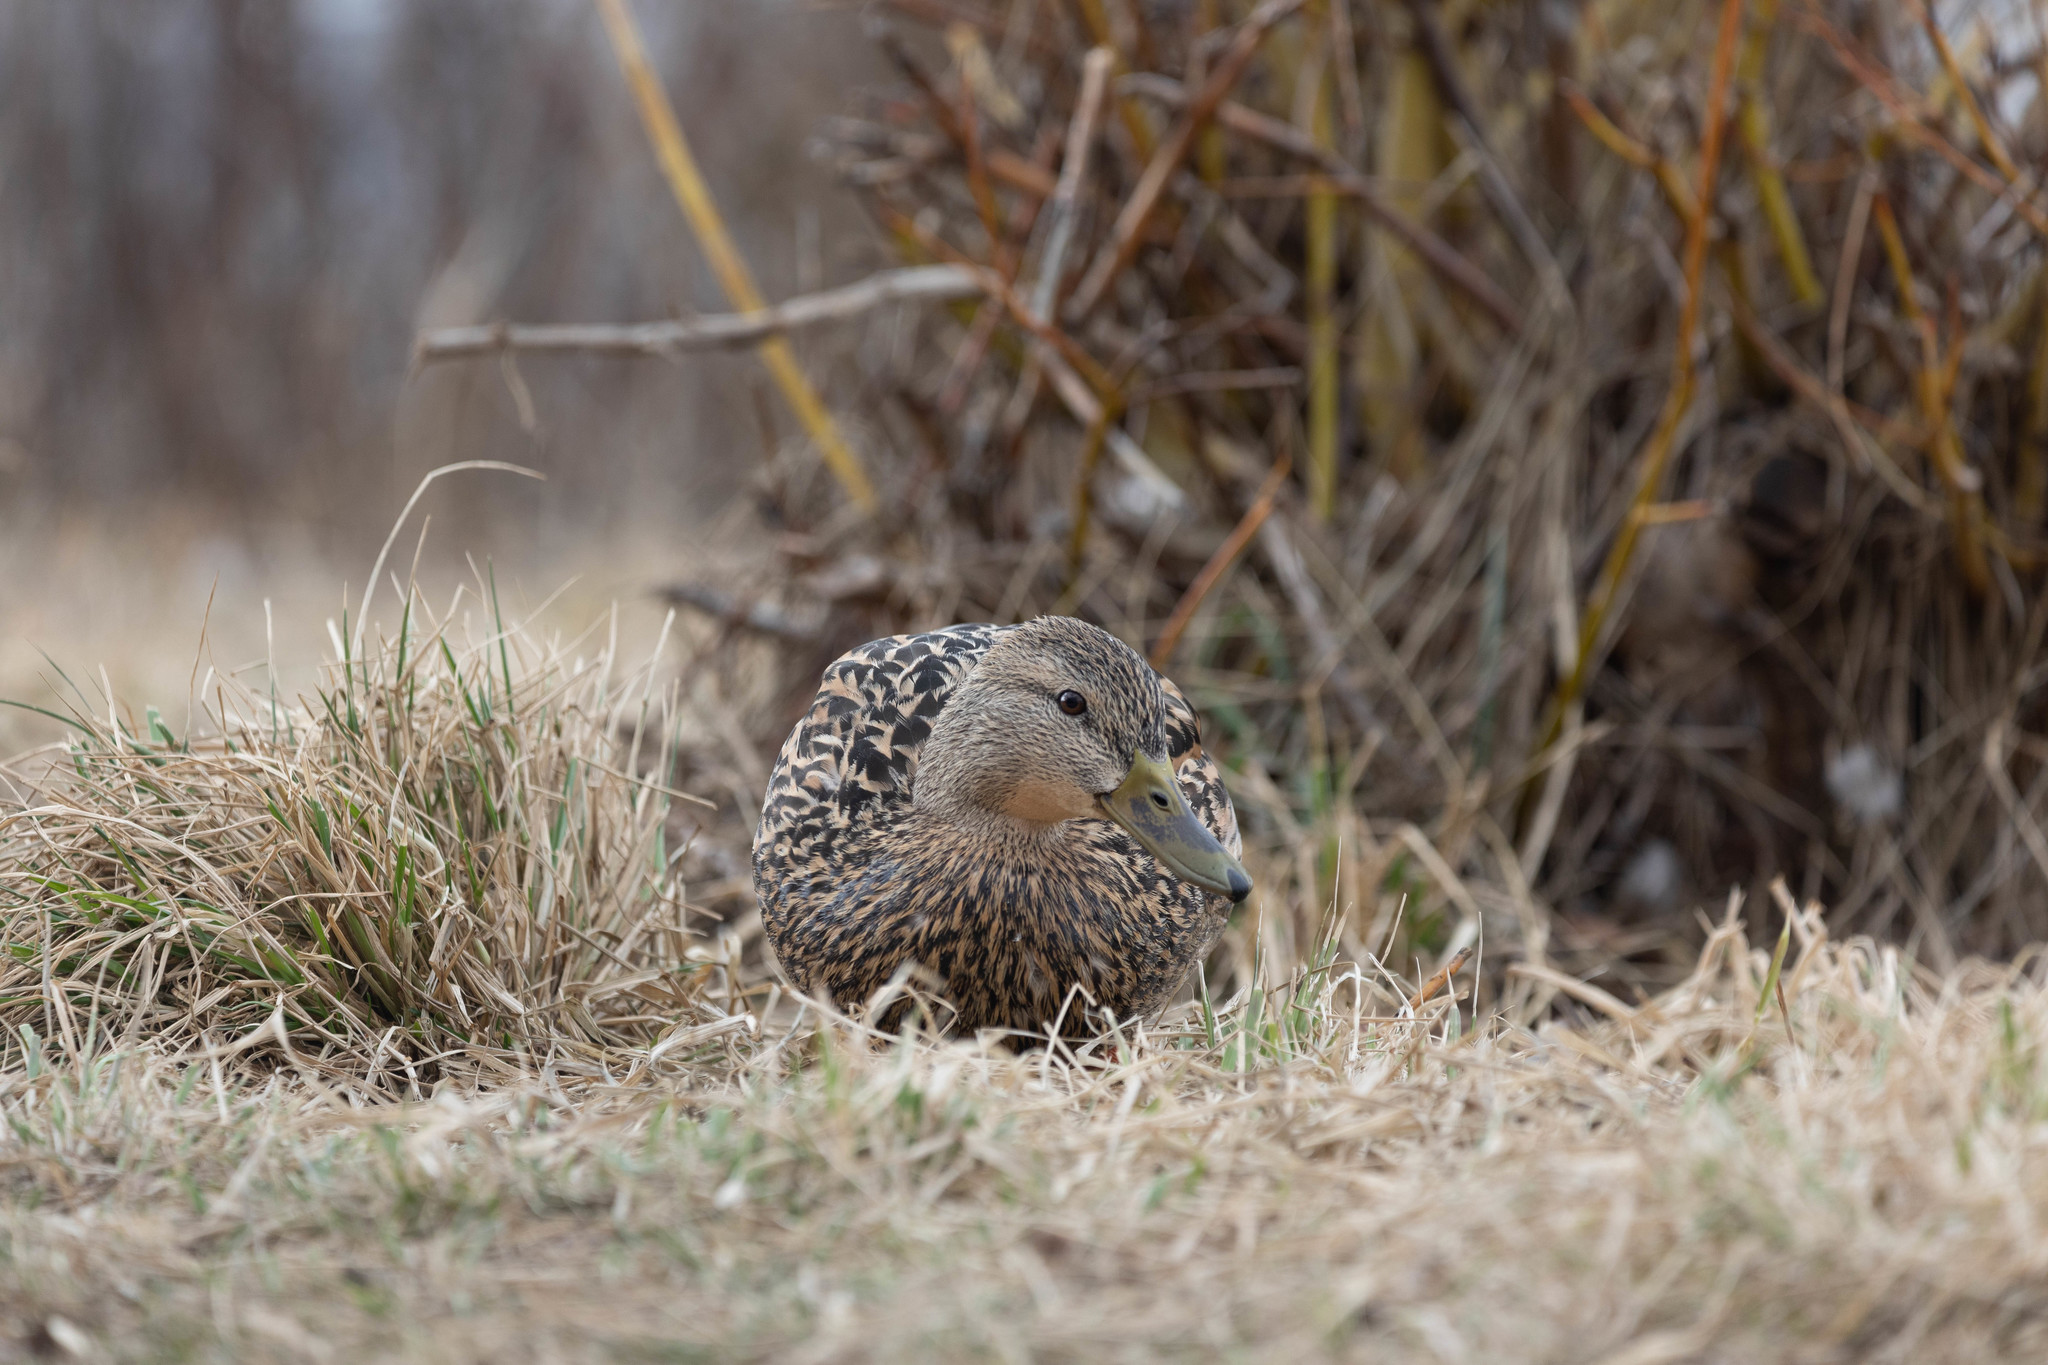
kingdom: Animalia
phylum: Chordata
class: Aves
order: Anseriformes
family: Anatidae
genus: Anas
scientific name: Anas platyrhynchos
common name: Mallard
